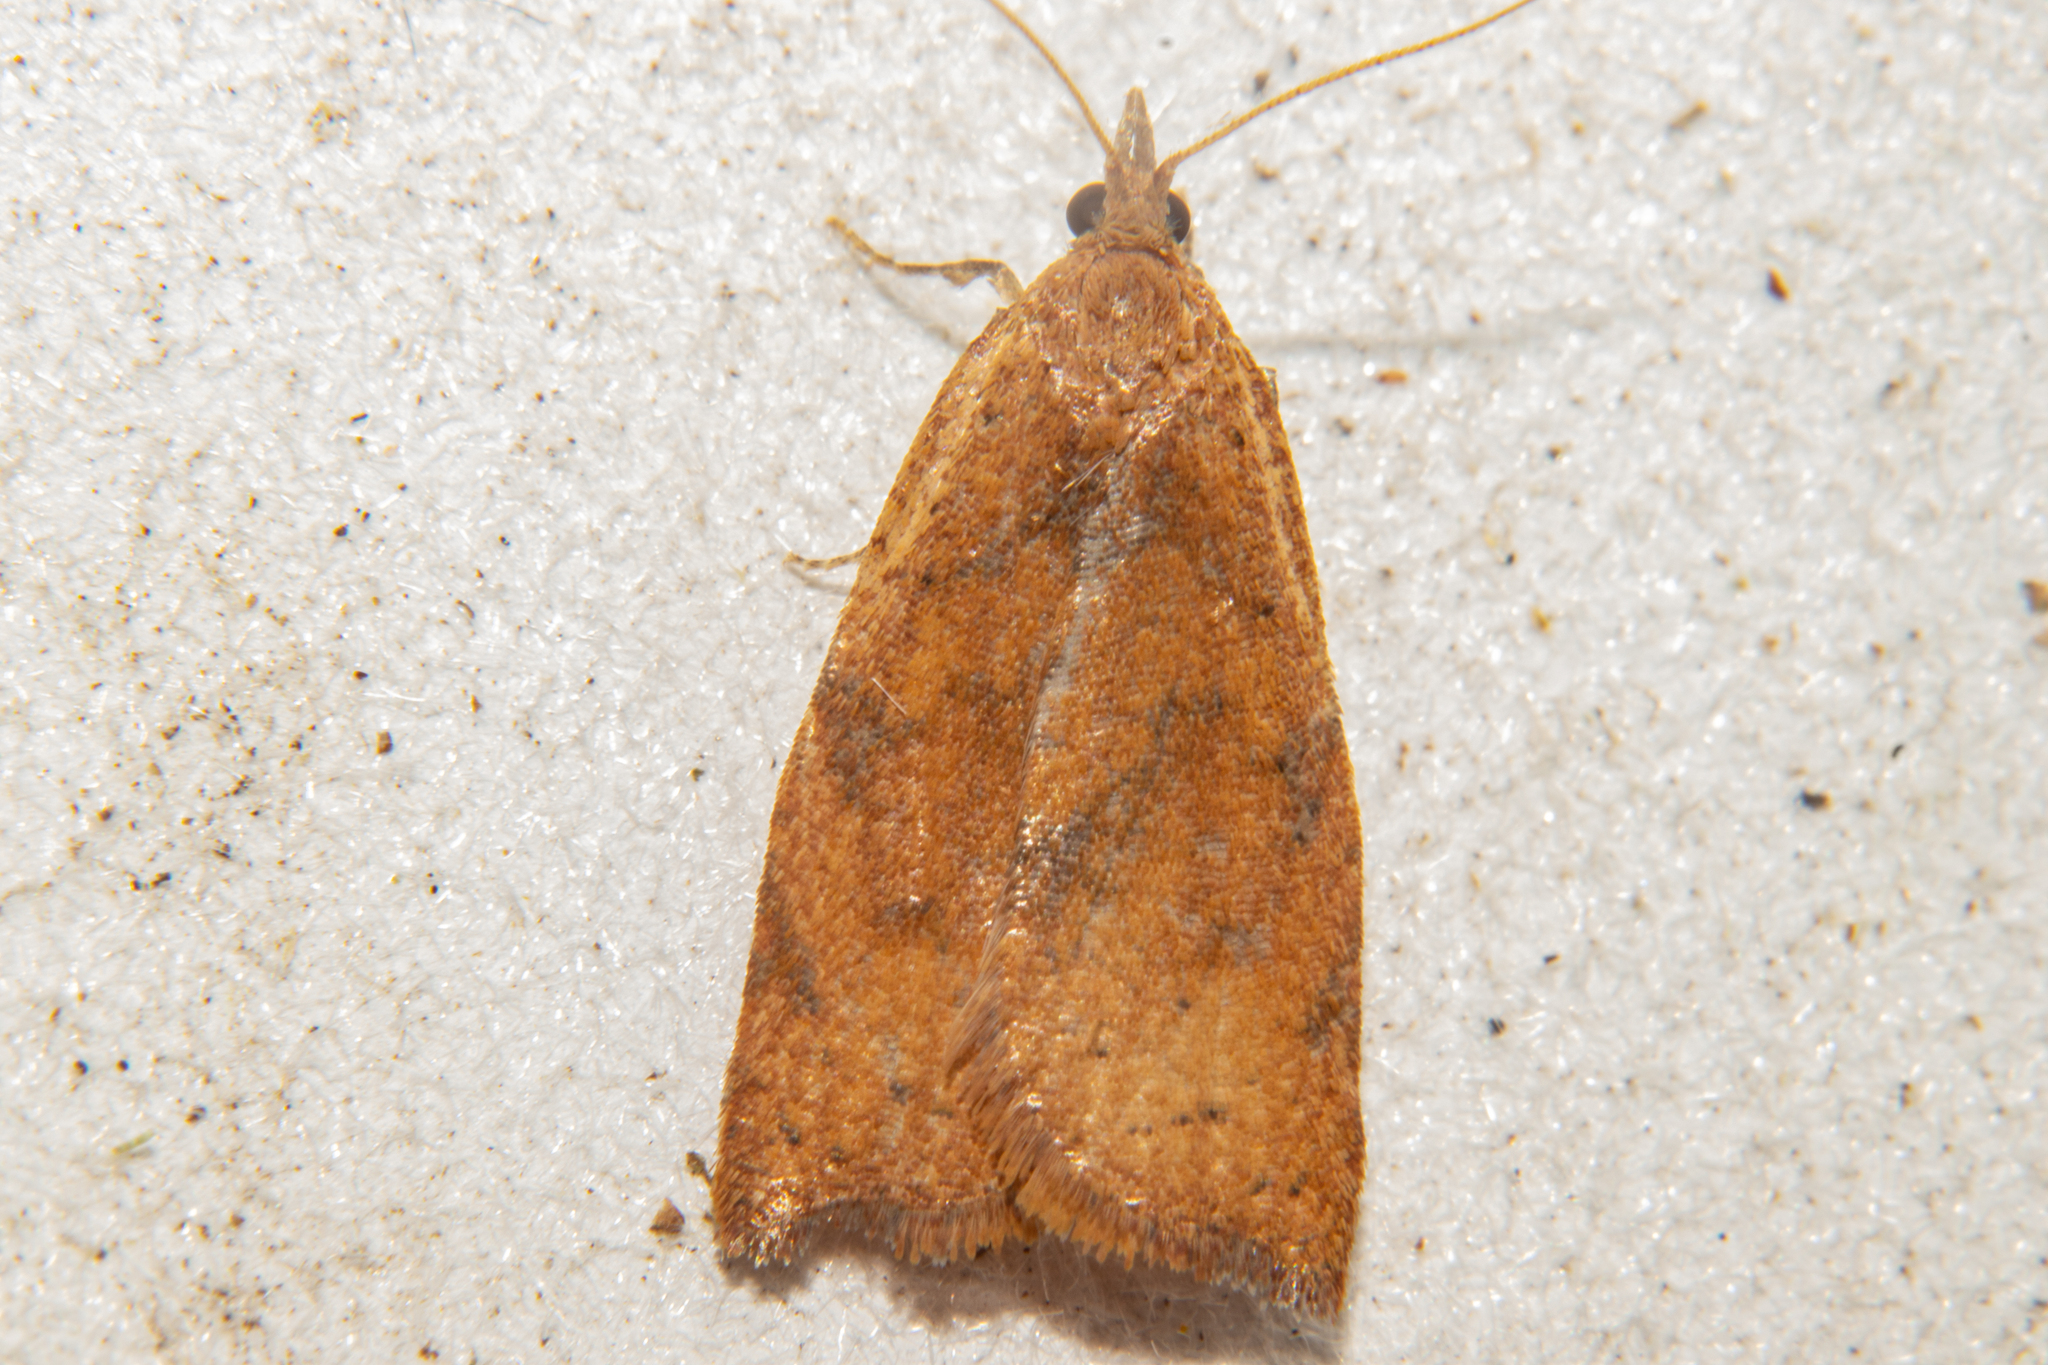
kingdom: Animalia
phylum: Arthropoda
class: Insecta
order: Lepidoptera
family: Tortricidae
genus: Apoctena
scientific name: Apoctena flavescens
